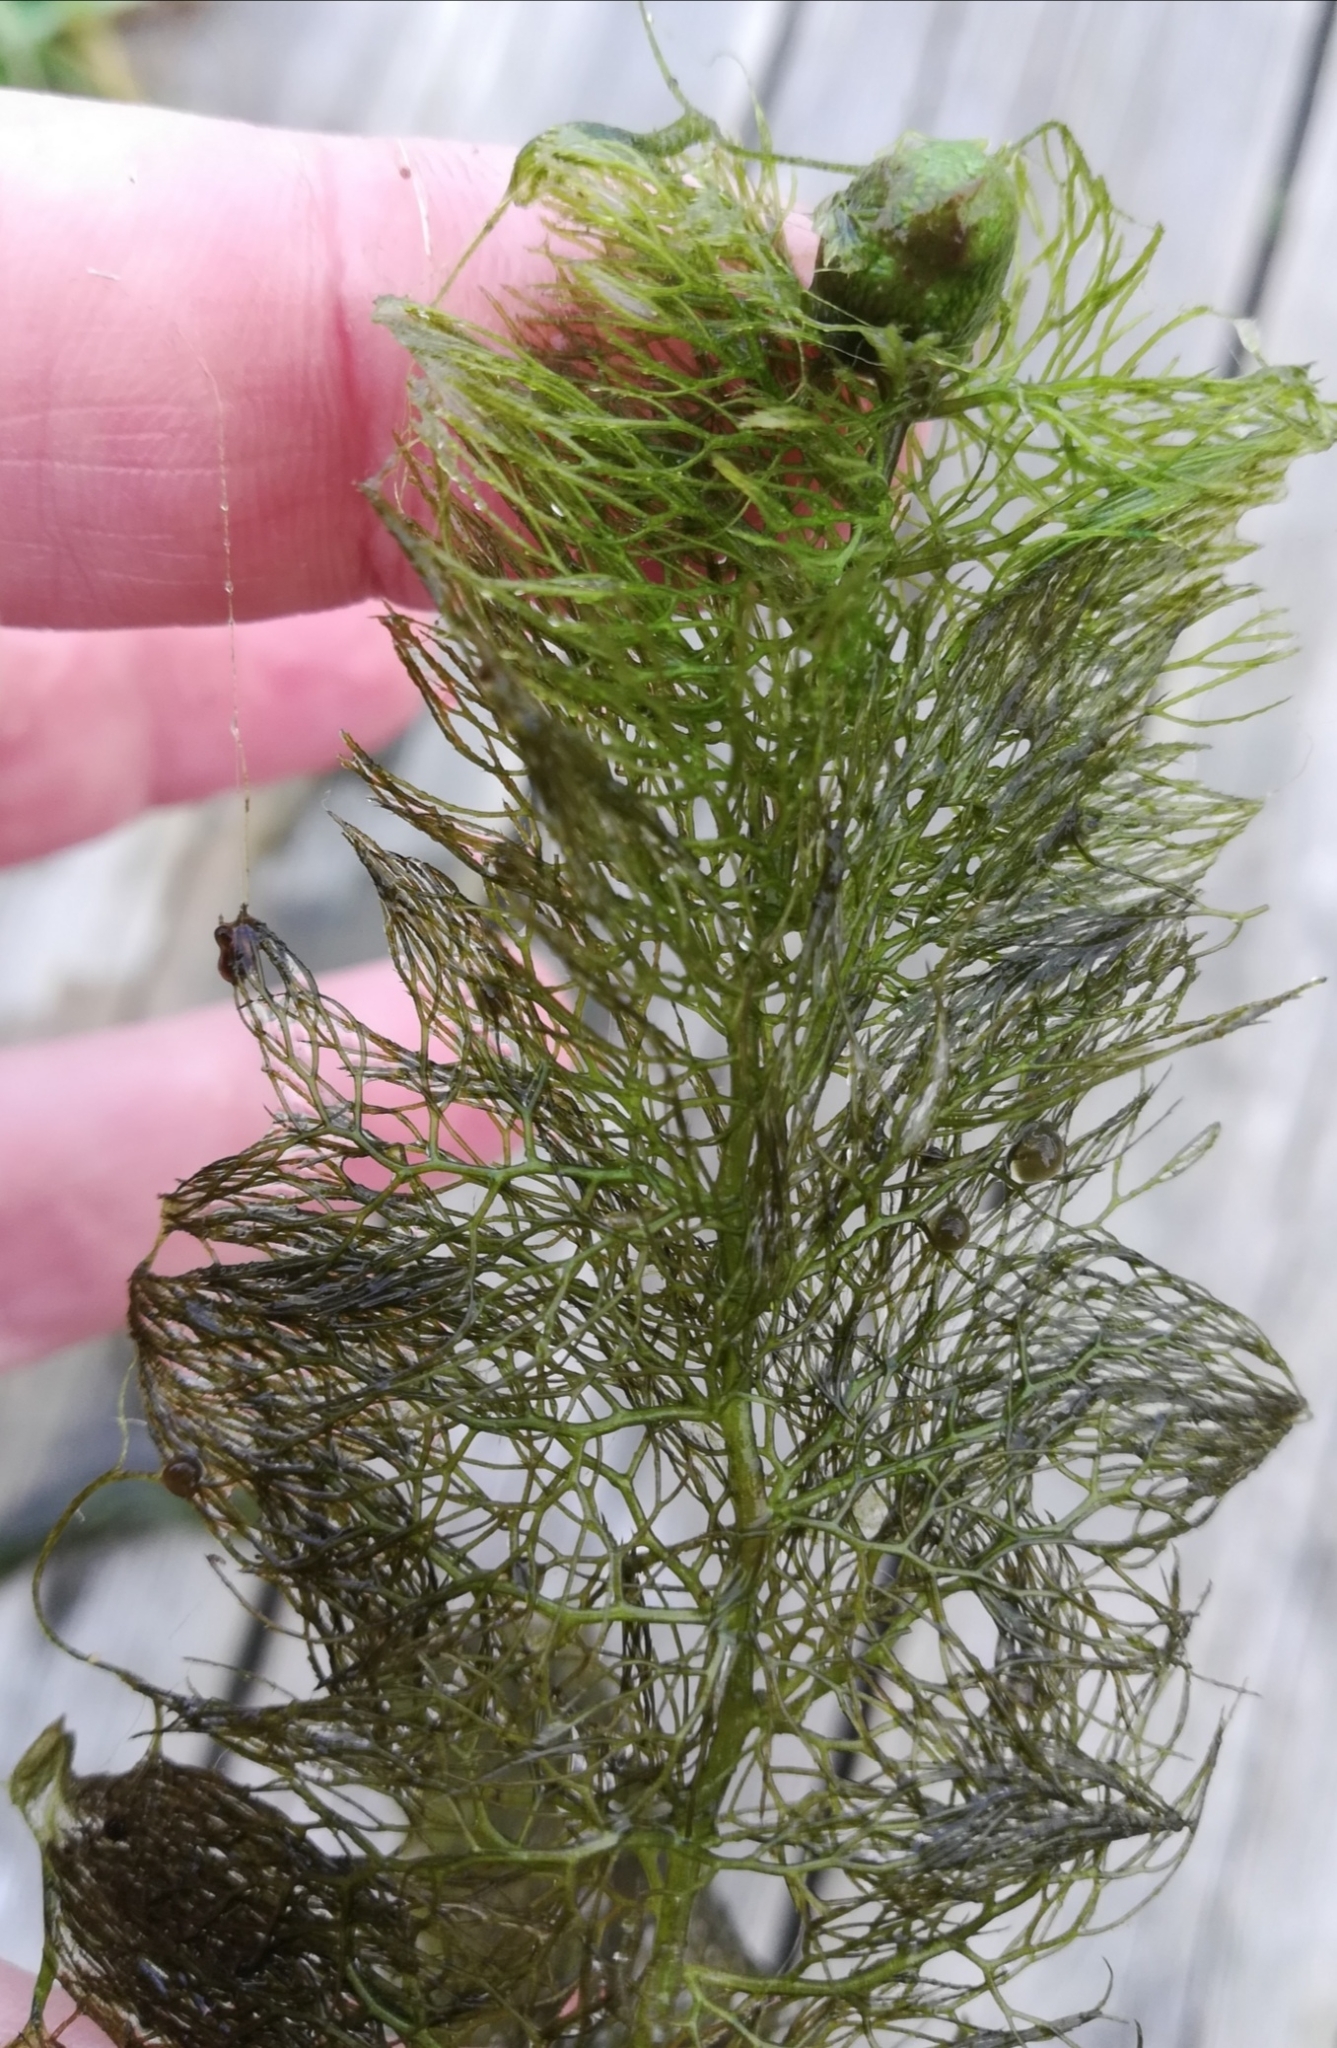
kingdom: Plantae
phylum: Tracheophyta
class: Magnoliopsida
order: Lamiales
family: Lentibulariaceae
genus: Utricularia
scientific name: Utricularia vulgaris
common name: Greater bladderwort
